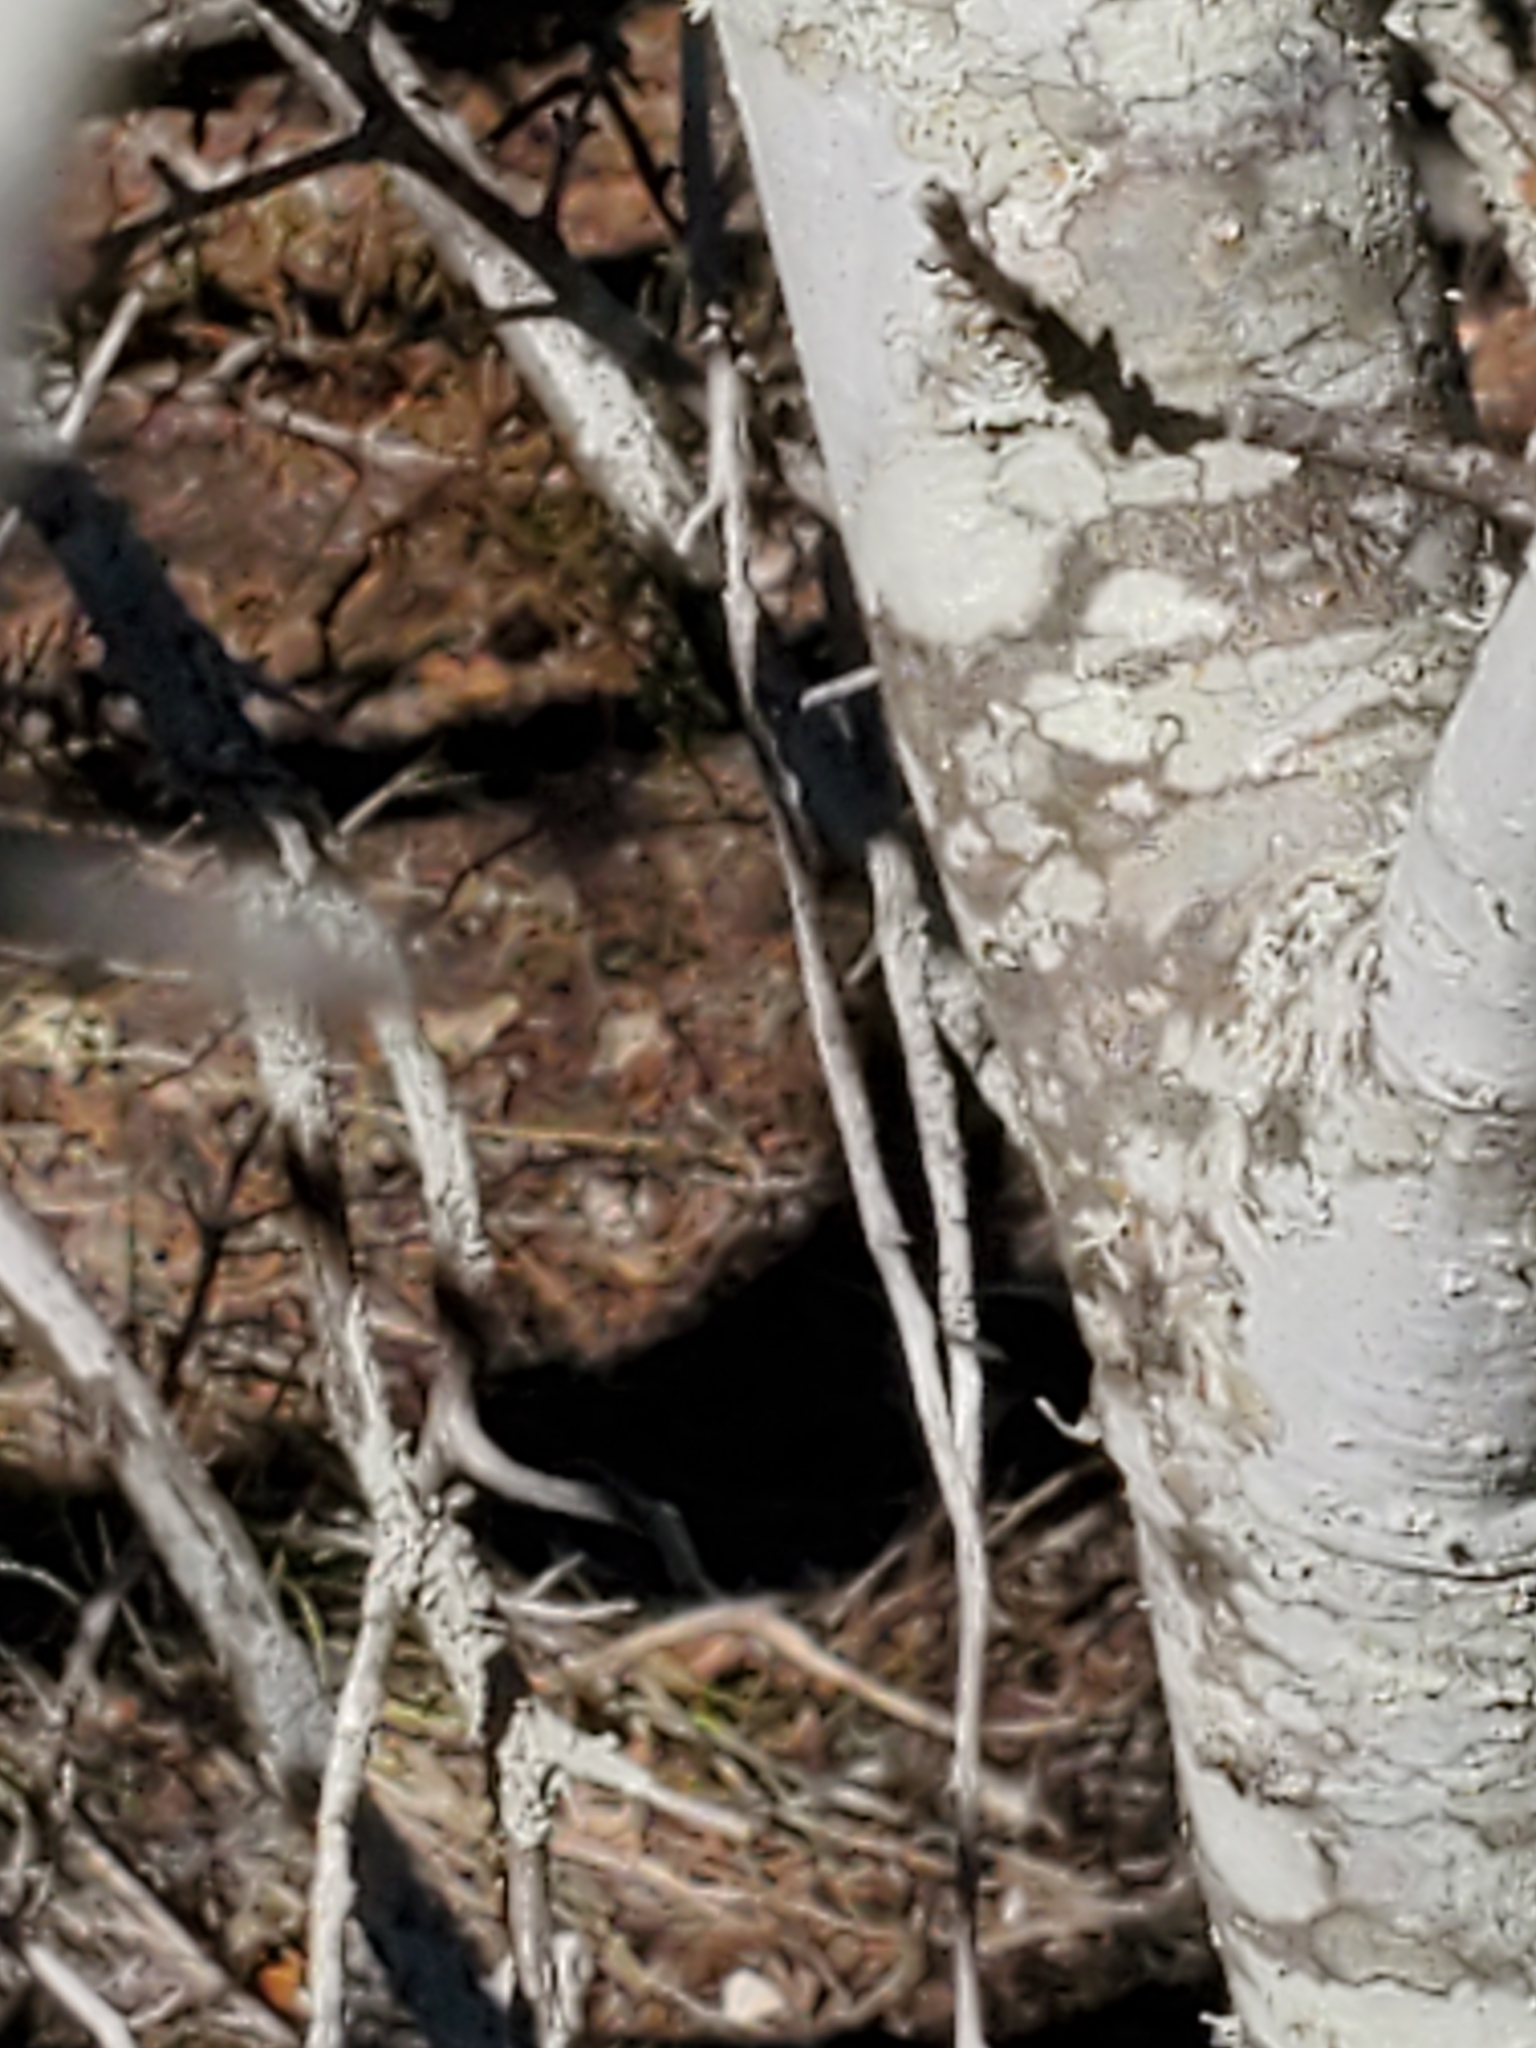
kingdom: Plantae
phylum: Tracheophyta
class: Magnoliopsida
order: Fagales
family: Fagaceae
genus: Quercus
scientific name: Quercus fusiformis
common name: Texas live oak
